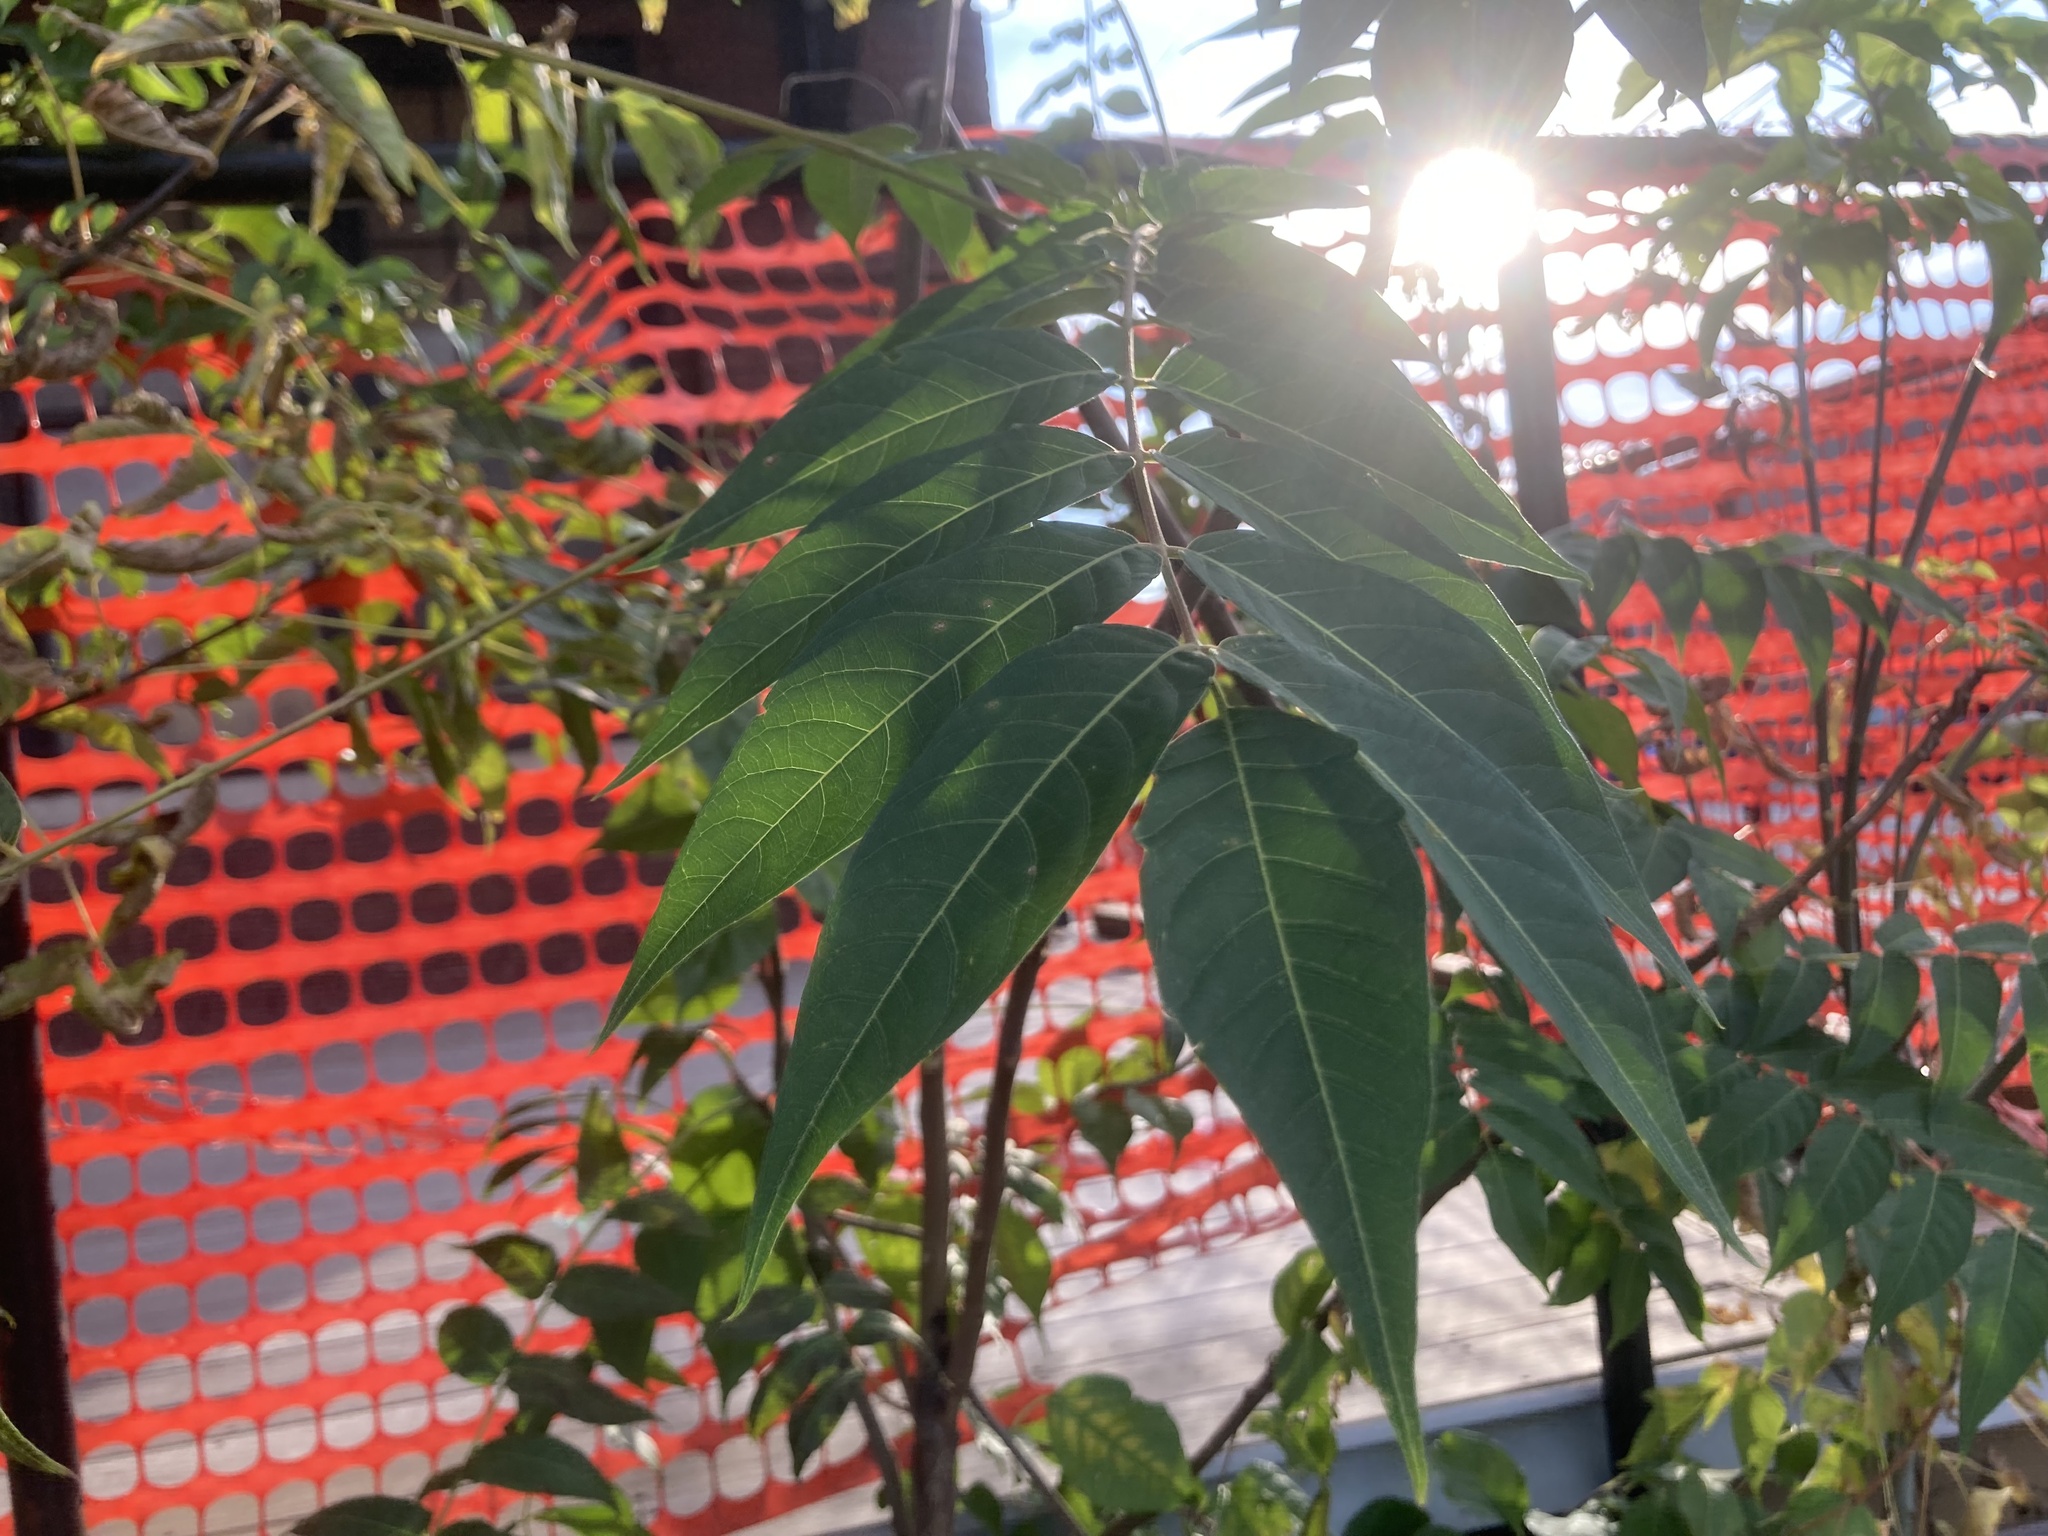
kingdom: Plantae
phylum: Tracheophyta
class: Magnoliopsida
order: Sapindales
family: Simaroubaceae
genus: Ailanthus
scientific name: Ailanthus altissima
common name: Tree-of-heaven
